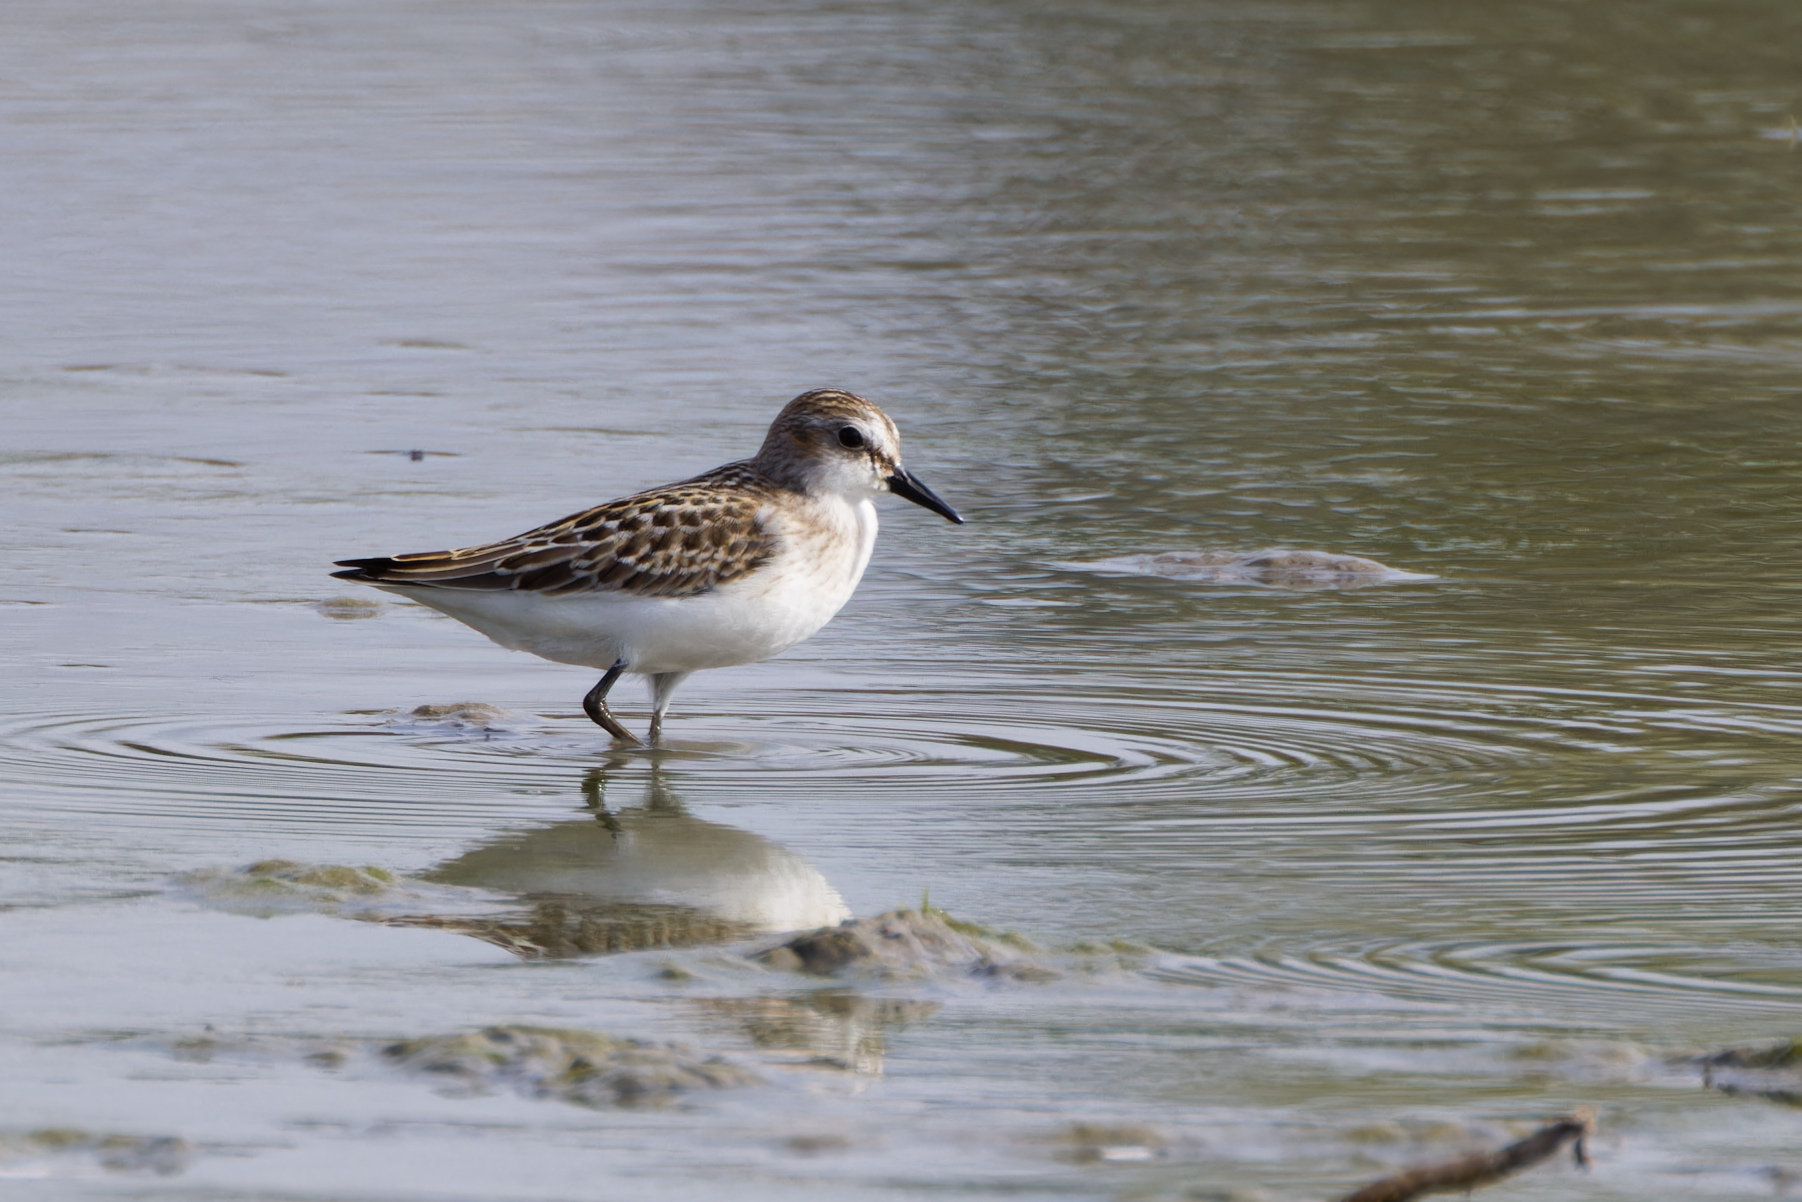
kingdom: Animalia
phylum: Chordata
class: Aves
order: Charadriiformes
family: Scolopacidae
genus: Calidris
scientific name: Calidris pusilla
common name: Semipalmated sandpiper
